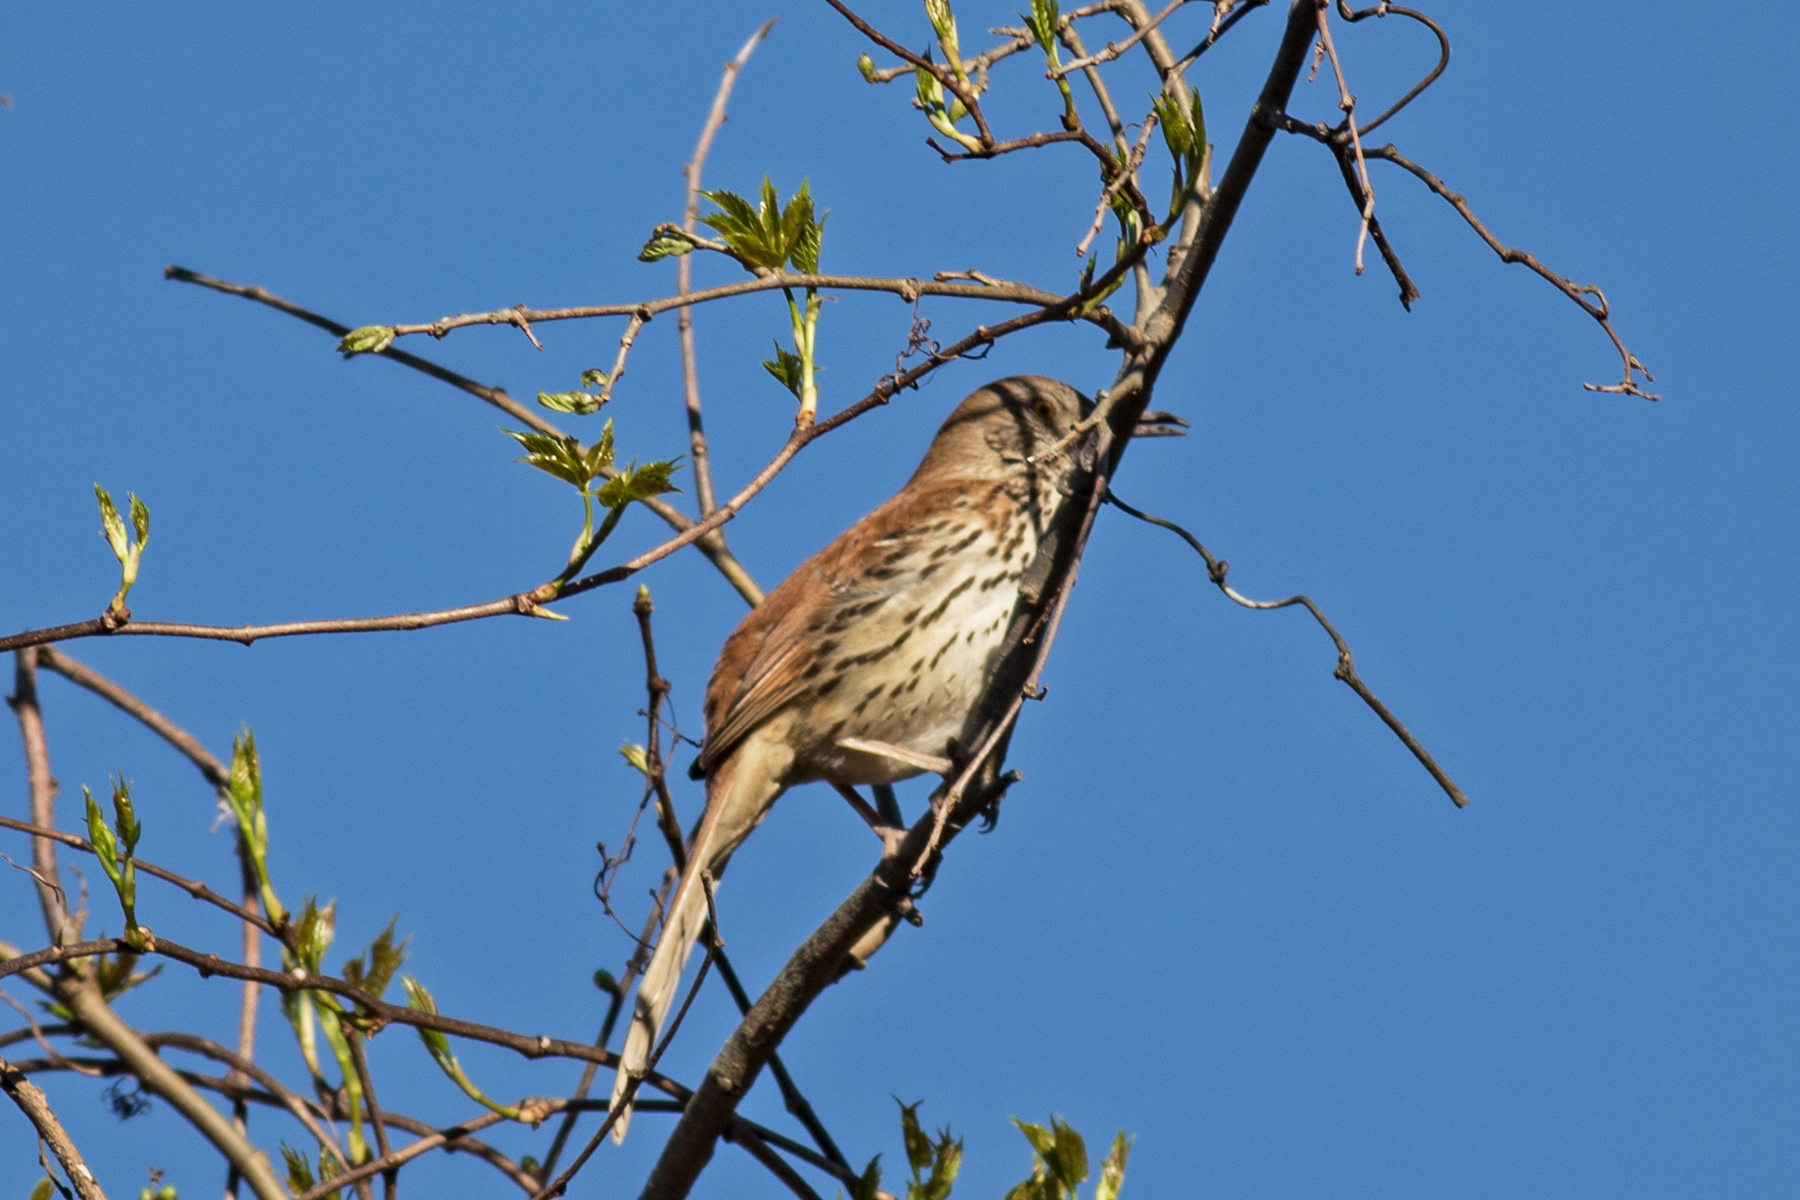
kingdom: Animalia
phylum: Chordata
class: Aves
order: Passeriformes
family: Mimidae
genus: Toxostoma
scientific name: Toxostoma rufum
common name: Brown thrasher
